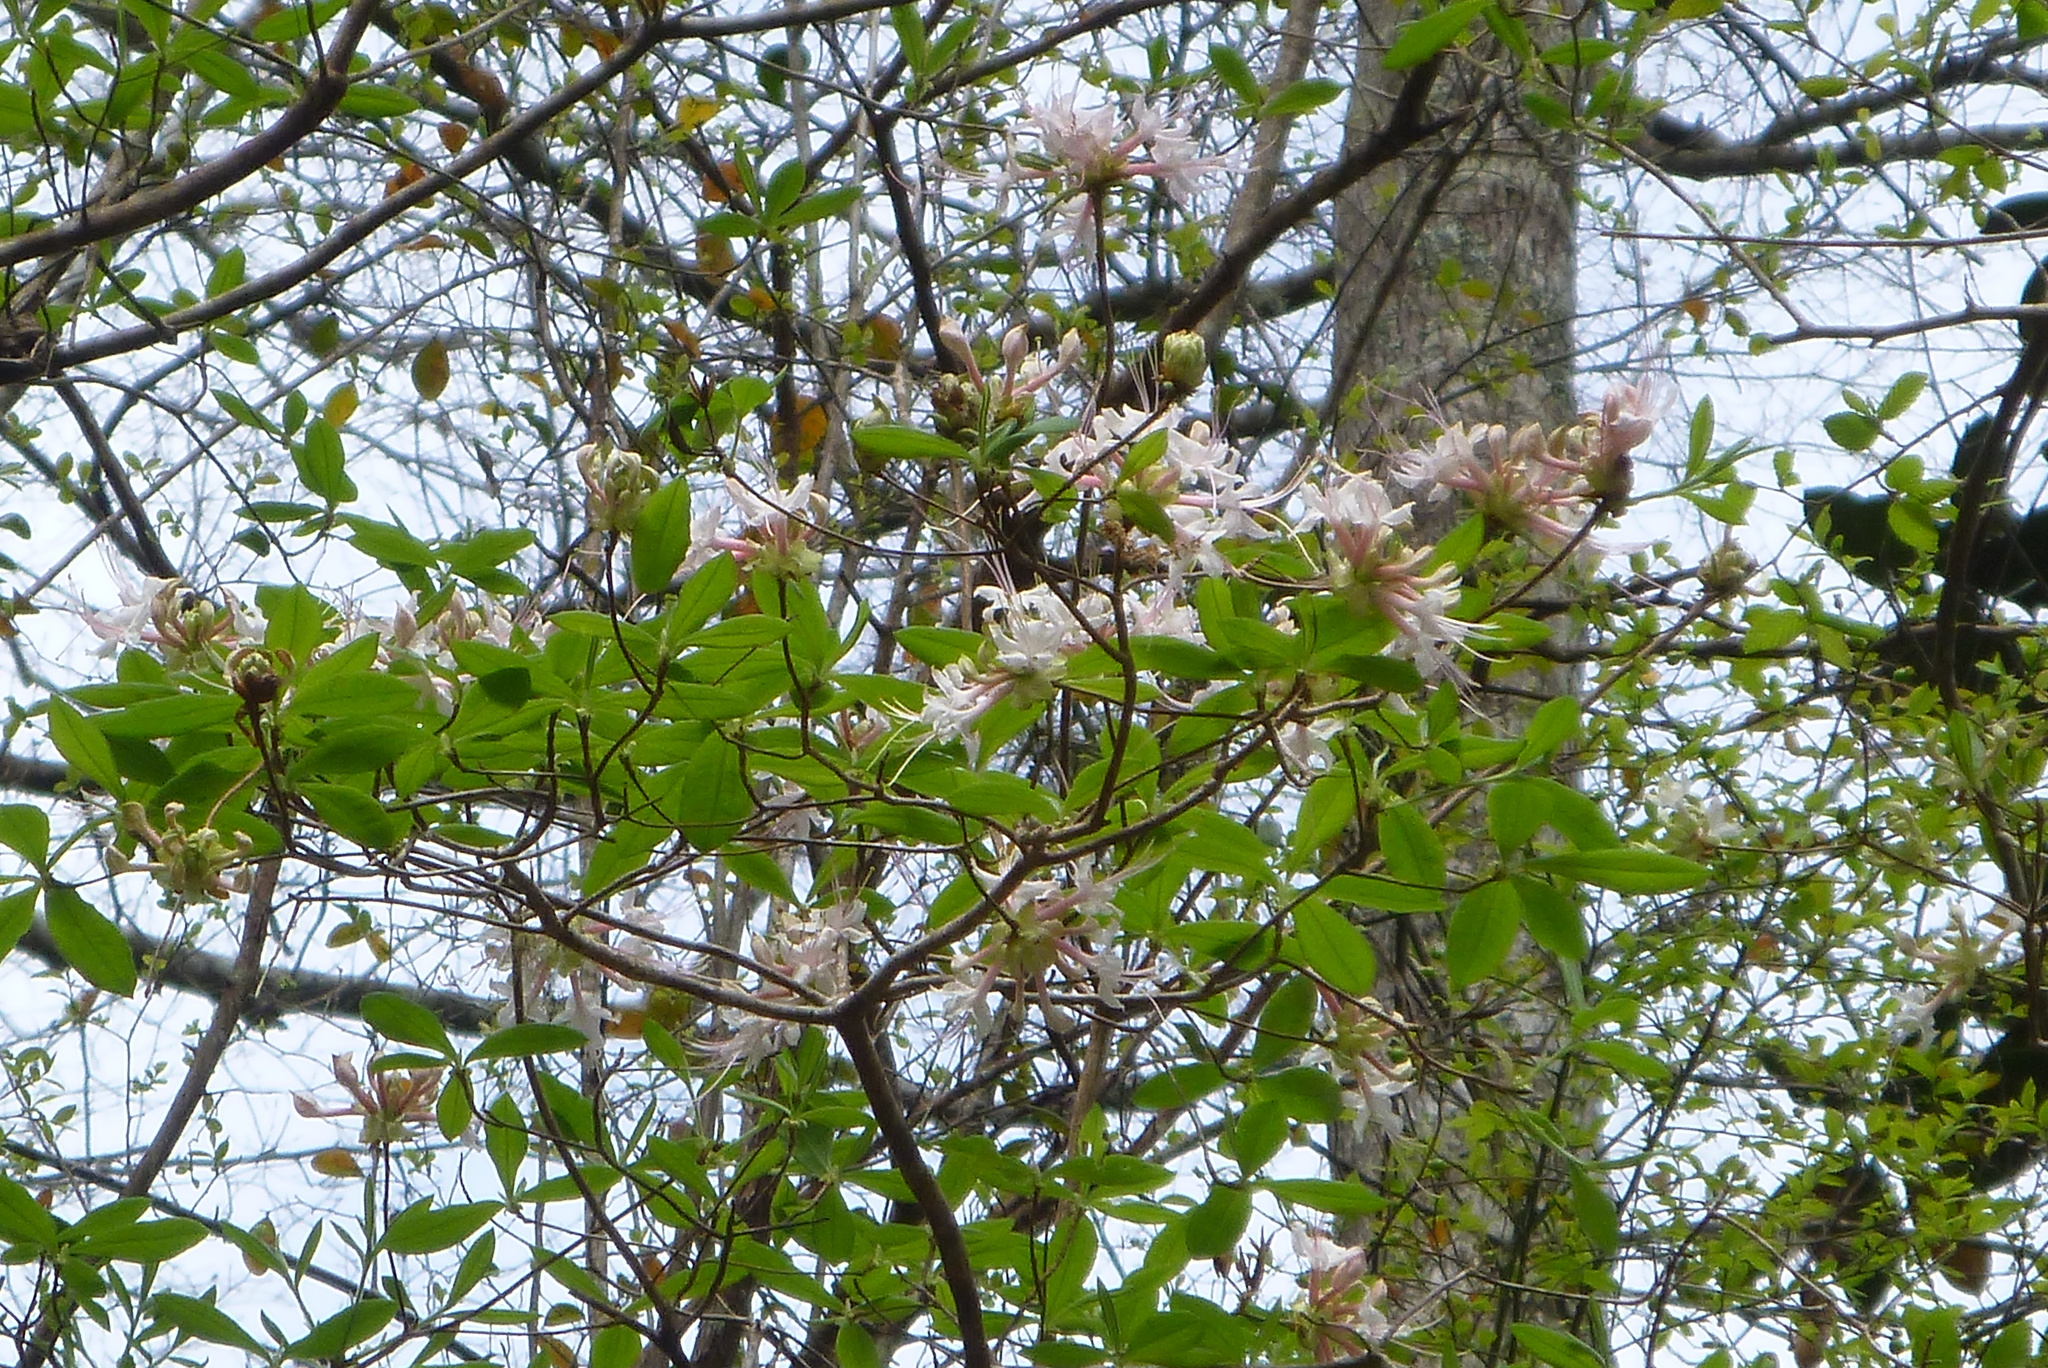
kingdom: Plantae
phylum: Tracheophyta
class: Magnoliopsida
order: Ericales
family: Ericaceae
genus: Rhododendron
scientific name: Rhododendron canescens
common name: Mountain azalea
